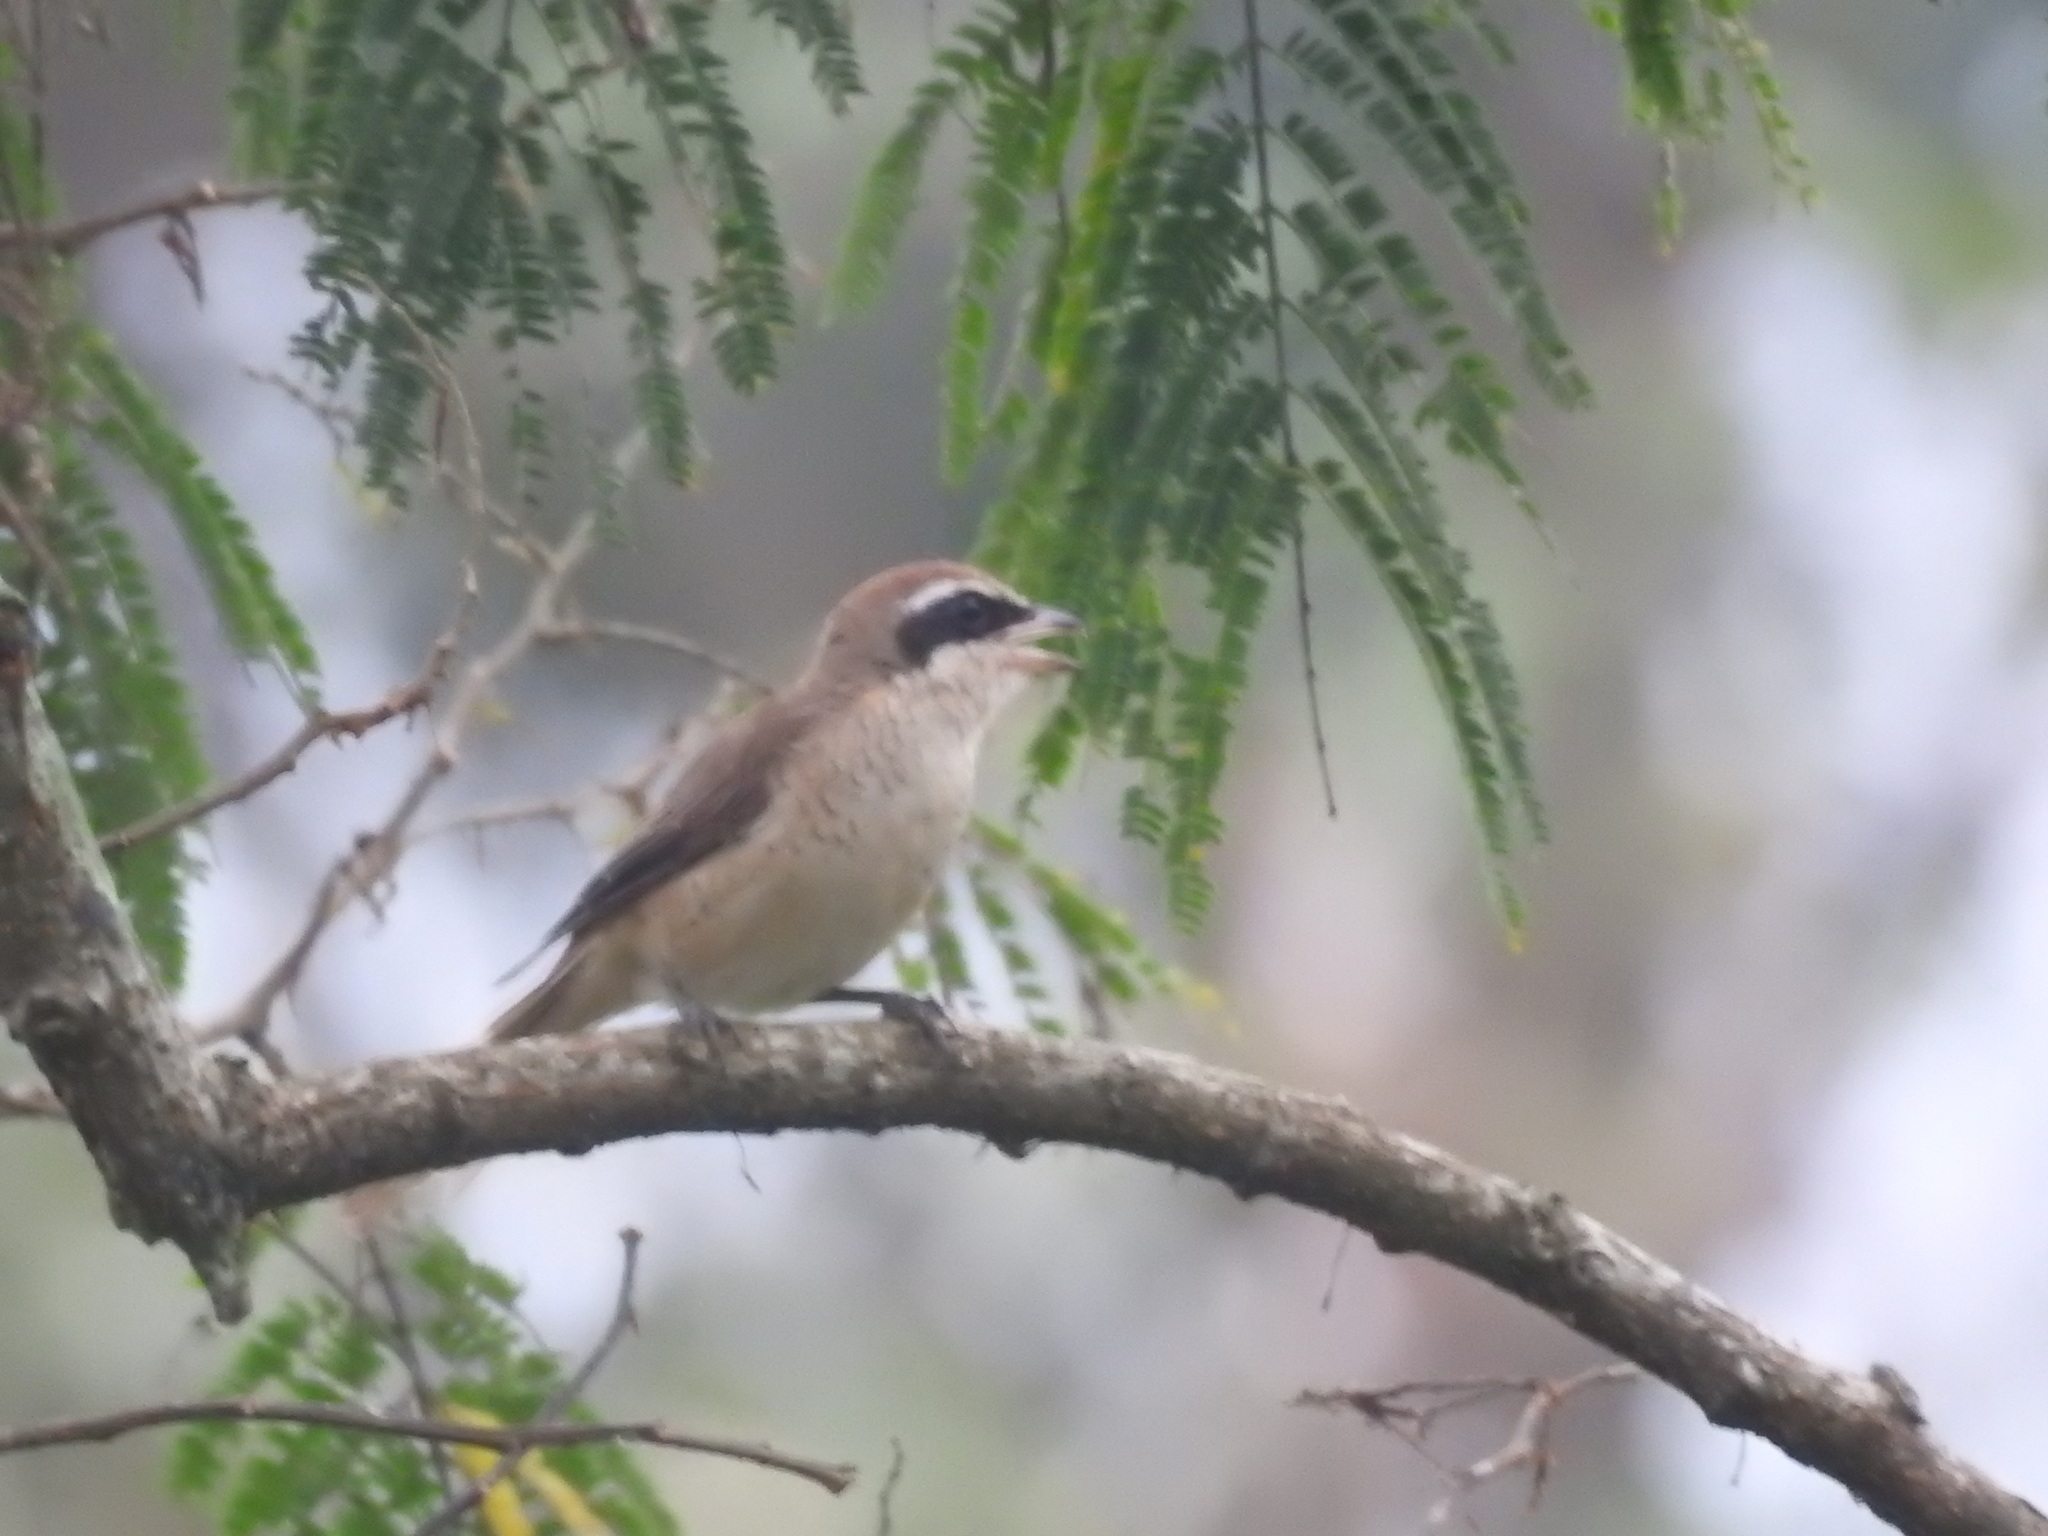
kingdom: Animalia
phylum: Chordata
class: Aves
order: Passeriformes
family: Laniidae
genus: Lanius
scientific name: Lanius cristatus
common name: Brown shrike
